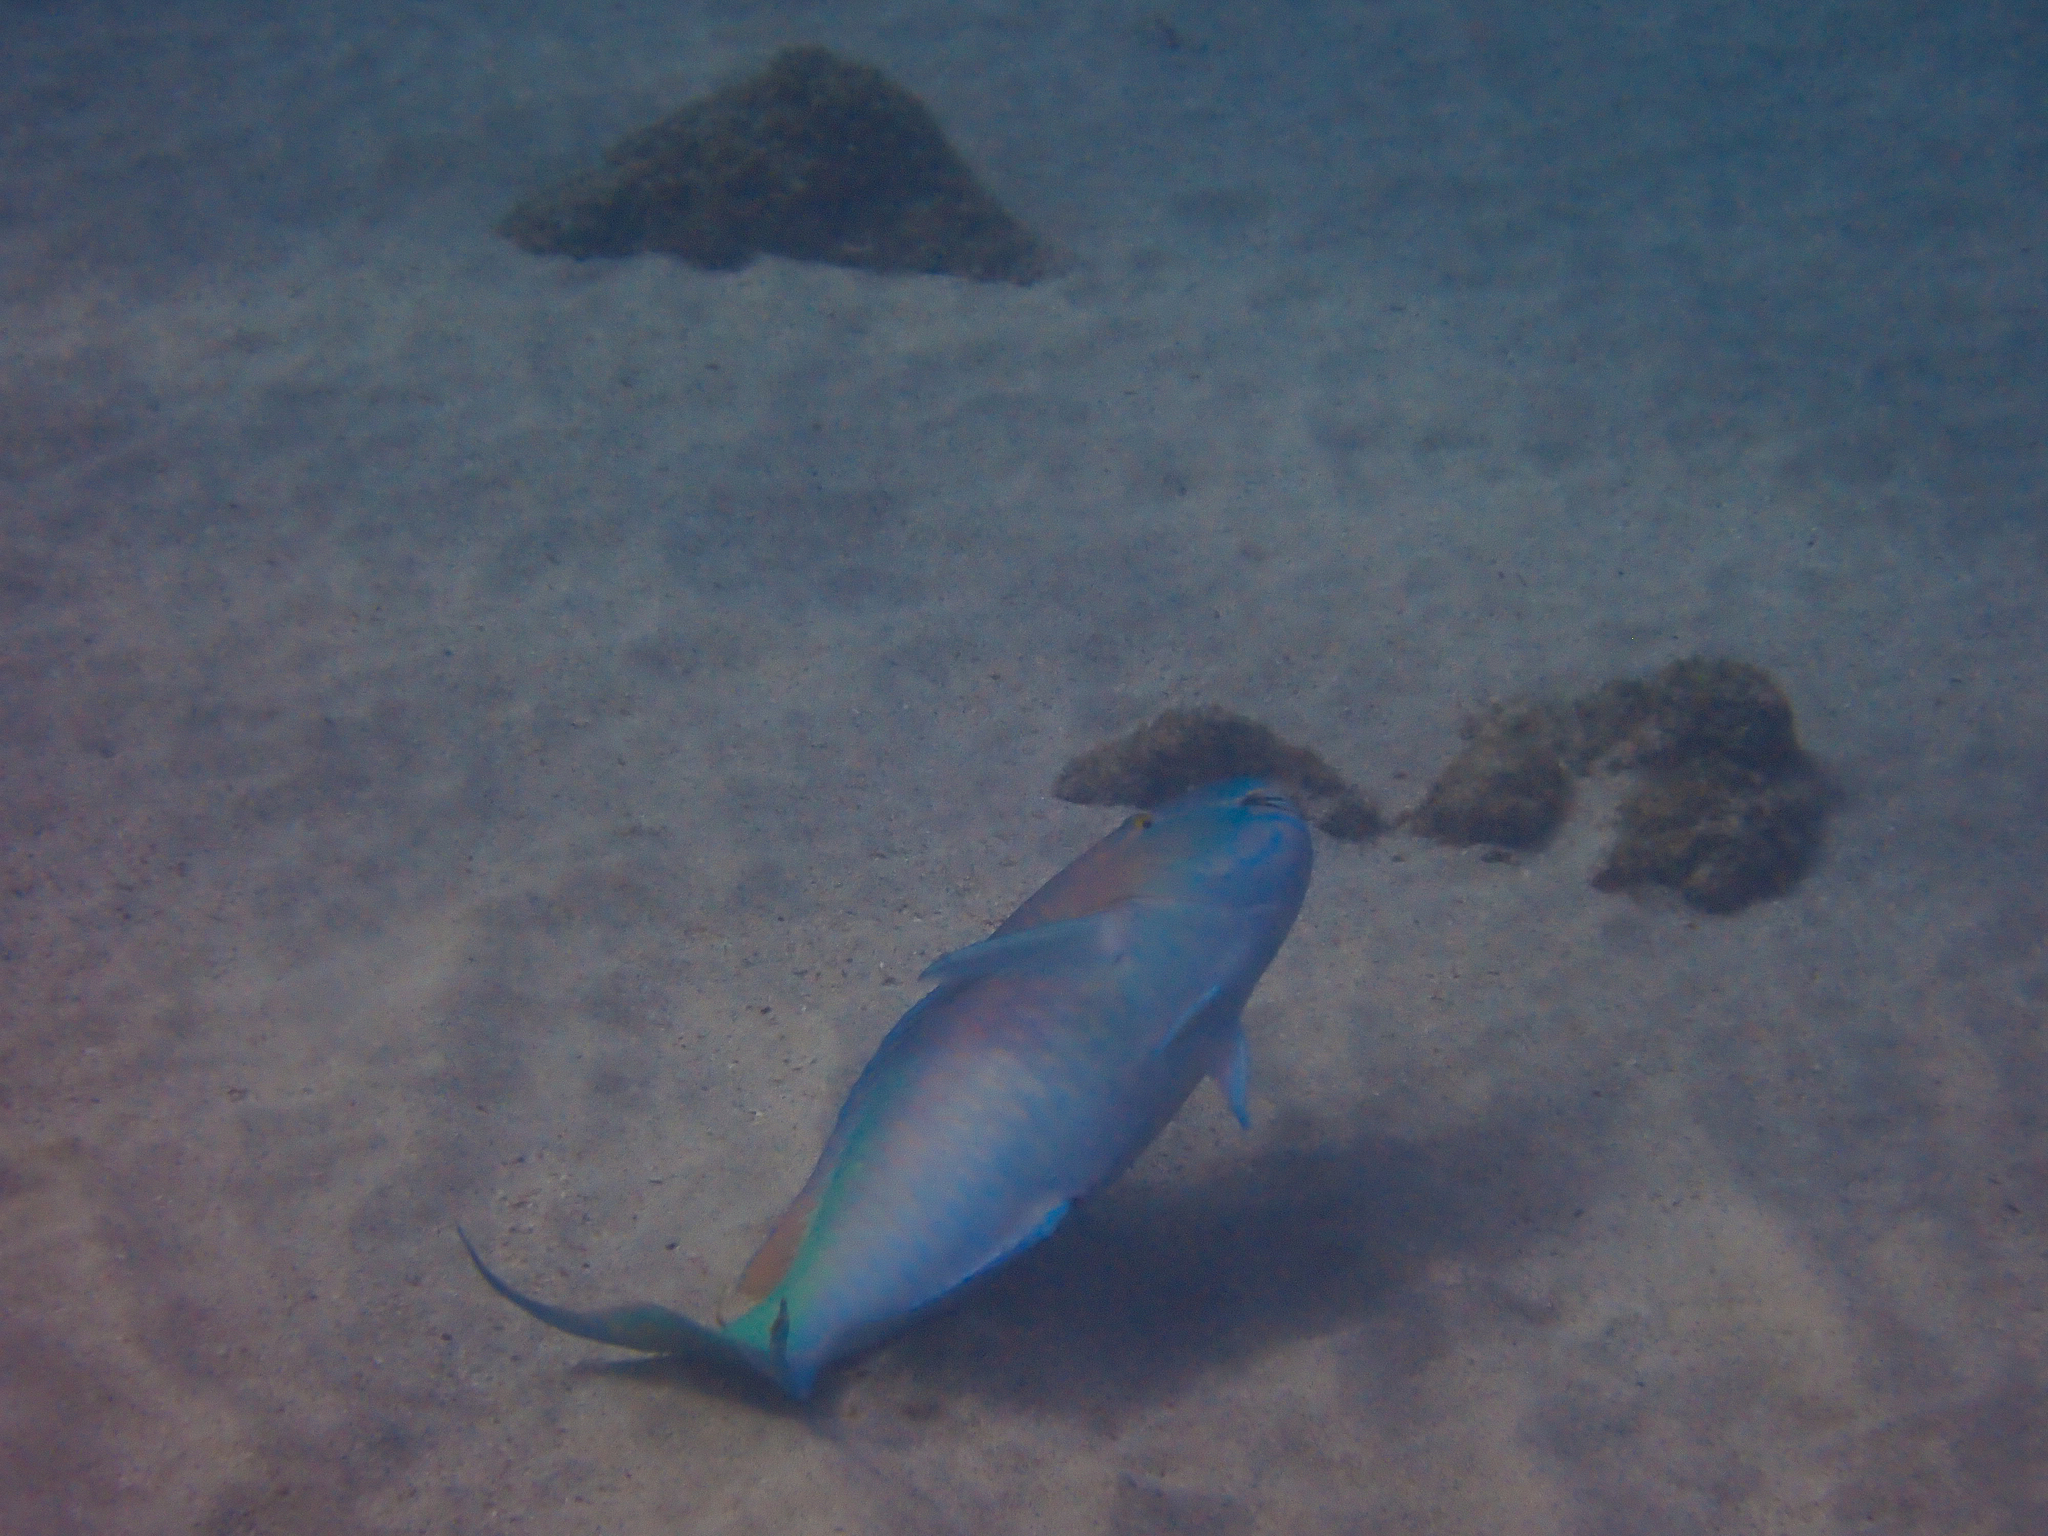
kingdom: Animalia
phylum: Chordata
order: Perciformes
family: Scaridae
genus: Scarus
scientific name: Scarus rubroviolaceus
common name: Ember parrotfish
